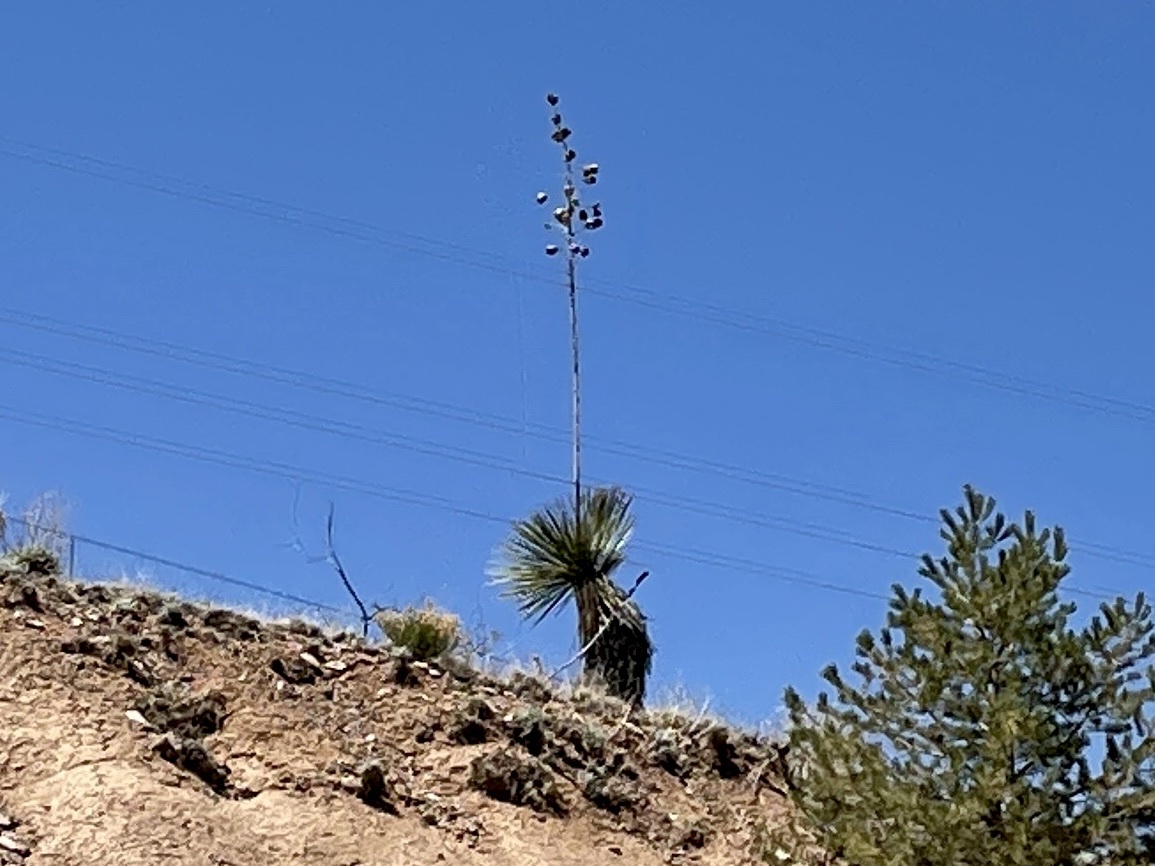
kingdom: Plantae
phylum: Tracheophyta
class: Liliopsida
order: Asparagales
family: Asparagaceae
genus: Yucca
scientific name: Yucca elata
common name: Palmella
